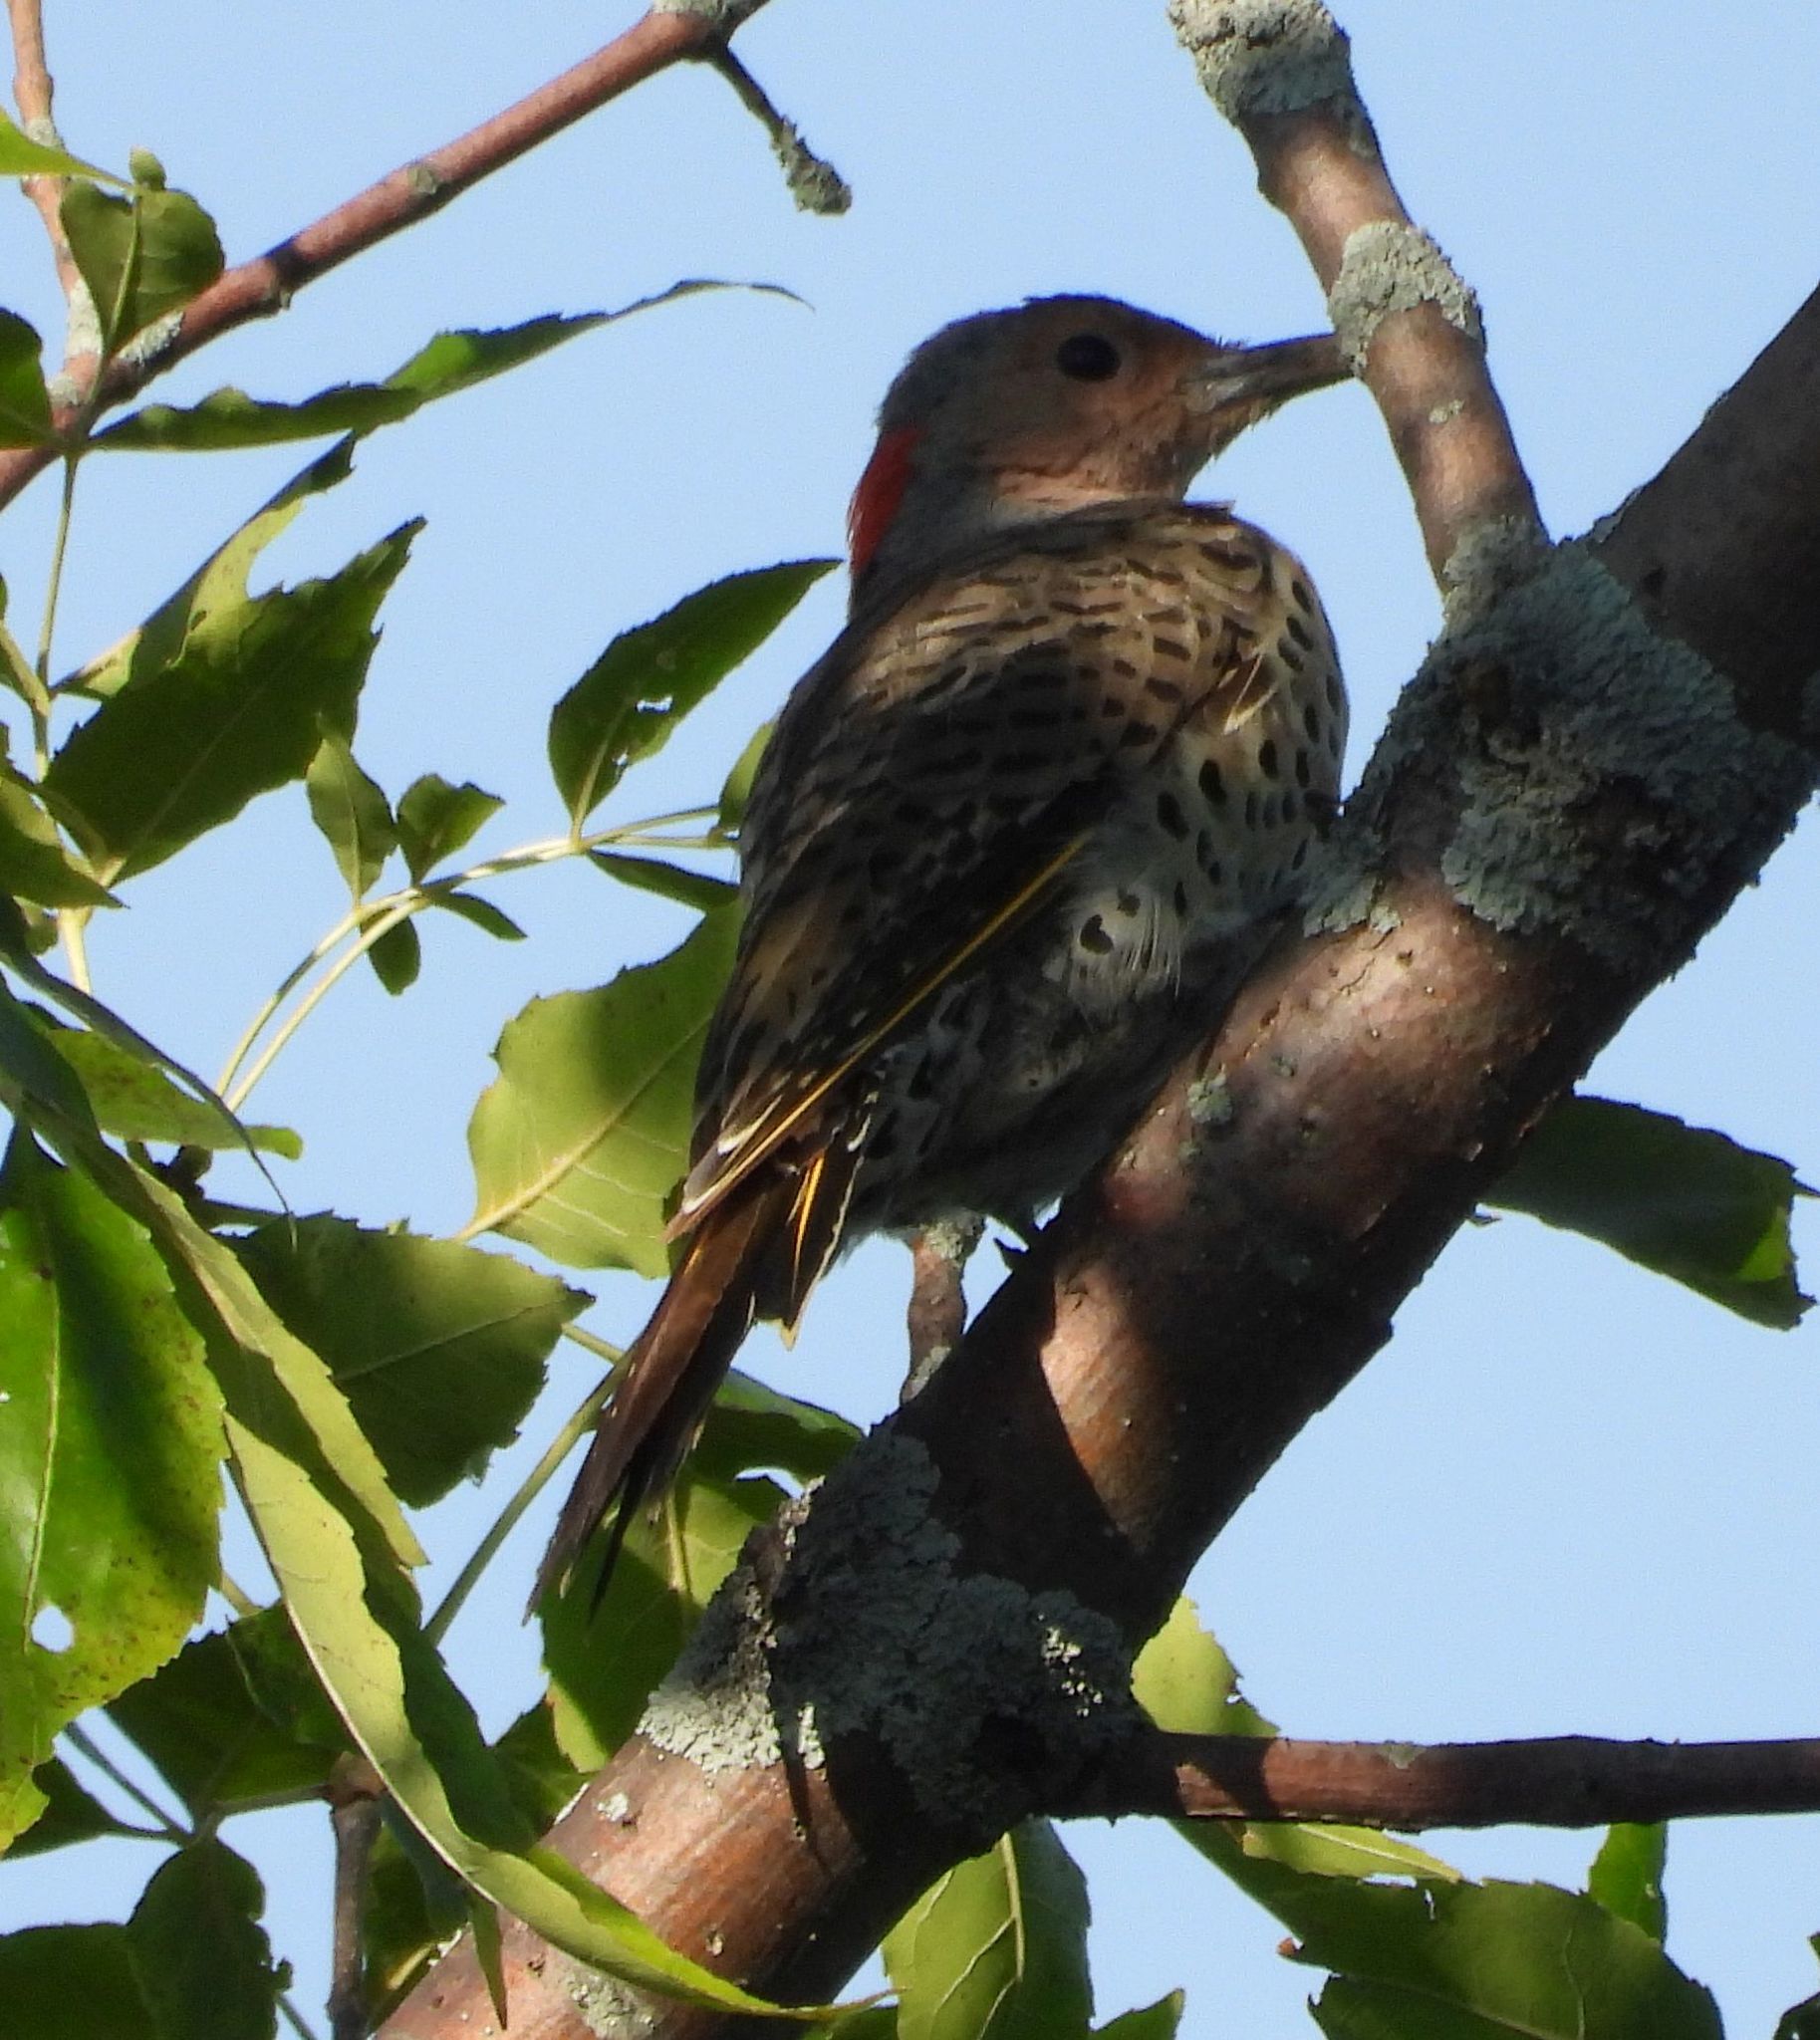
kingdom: Animalia
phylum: Chordata
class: Aves
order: Piciformes
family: Picidae
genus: Colaptes
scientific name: Colaptes auratus
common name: Northern flicker
